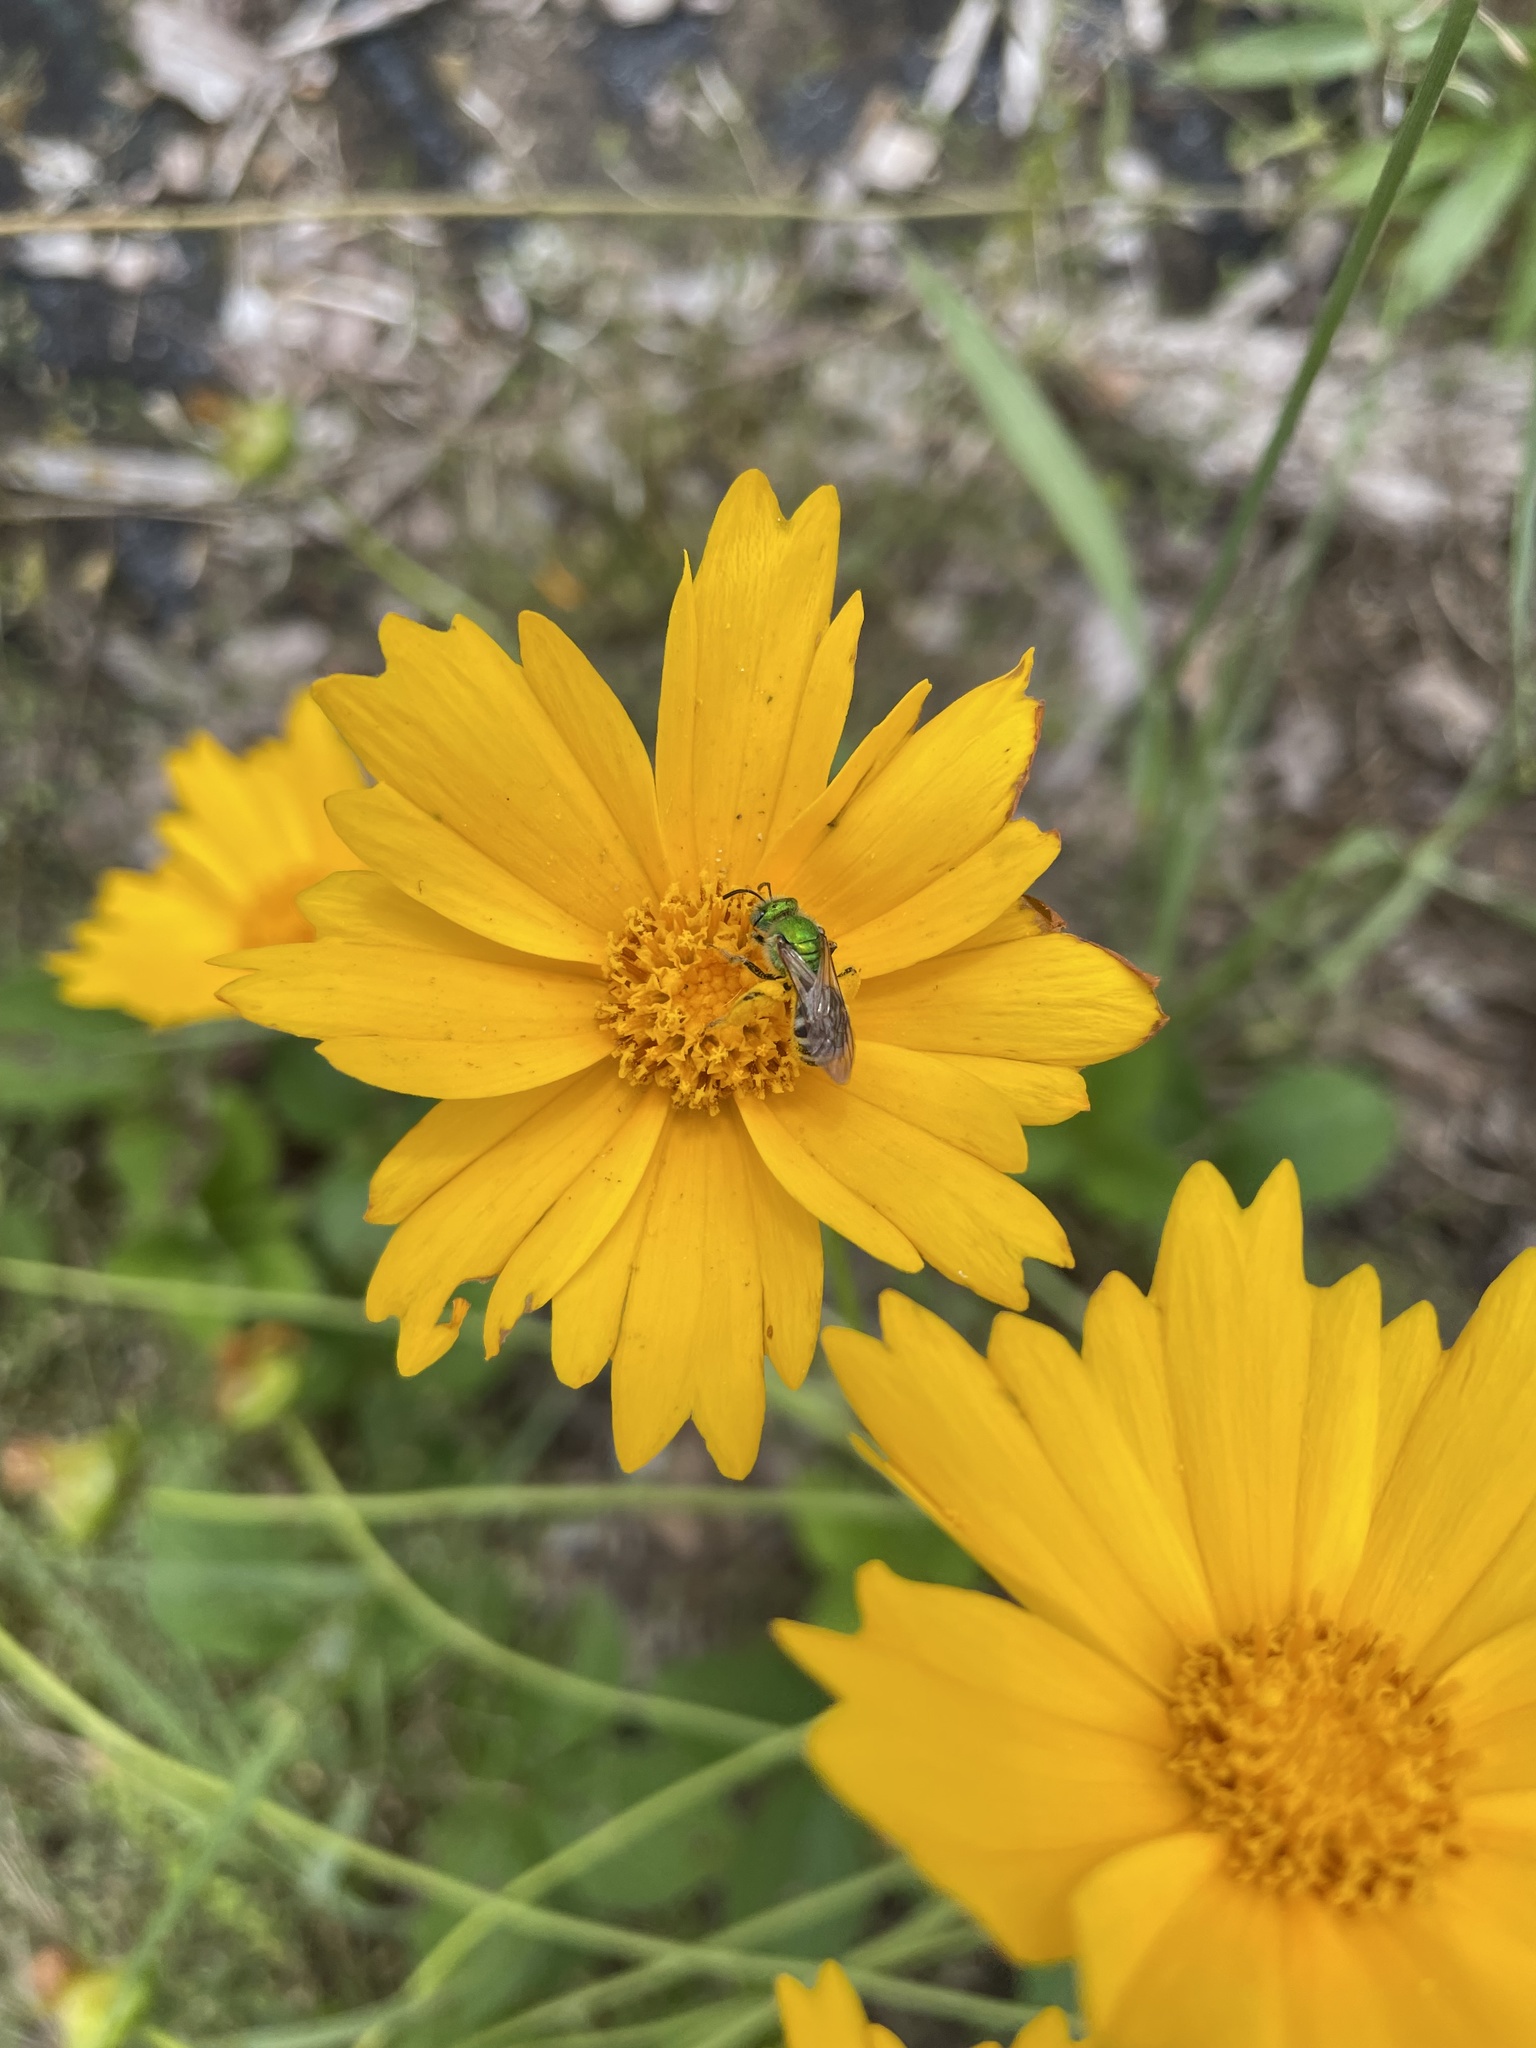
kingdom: Animalia
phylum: Arthropoda
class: Insecta
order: Hymenoptera
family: Halictidae
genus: Agapostemon
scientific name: Agapostemon virescens
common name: Bicolored striped sweat bee
